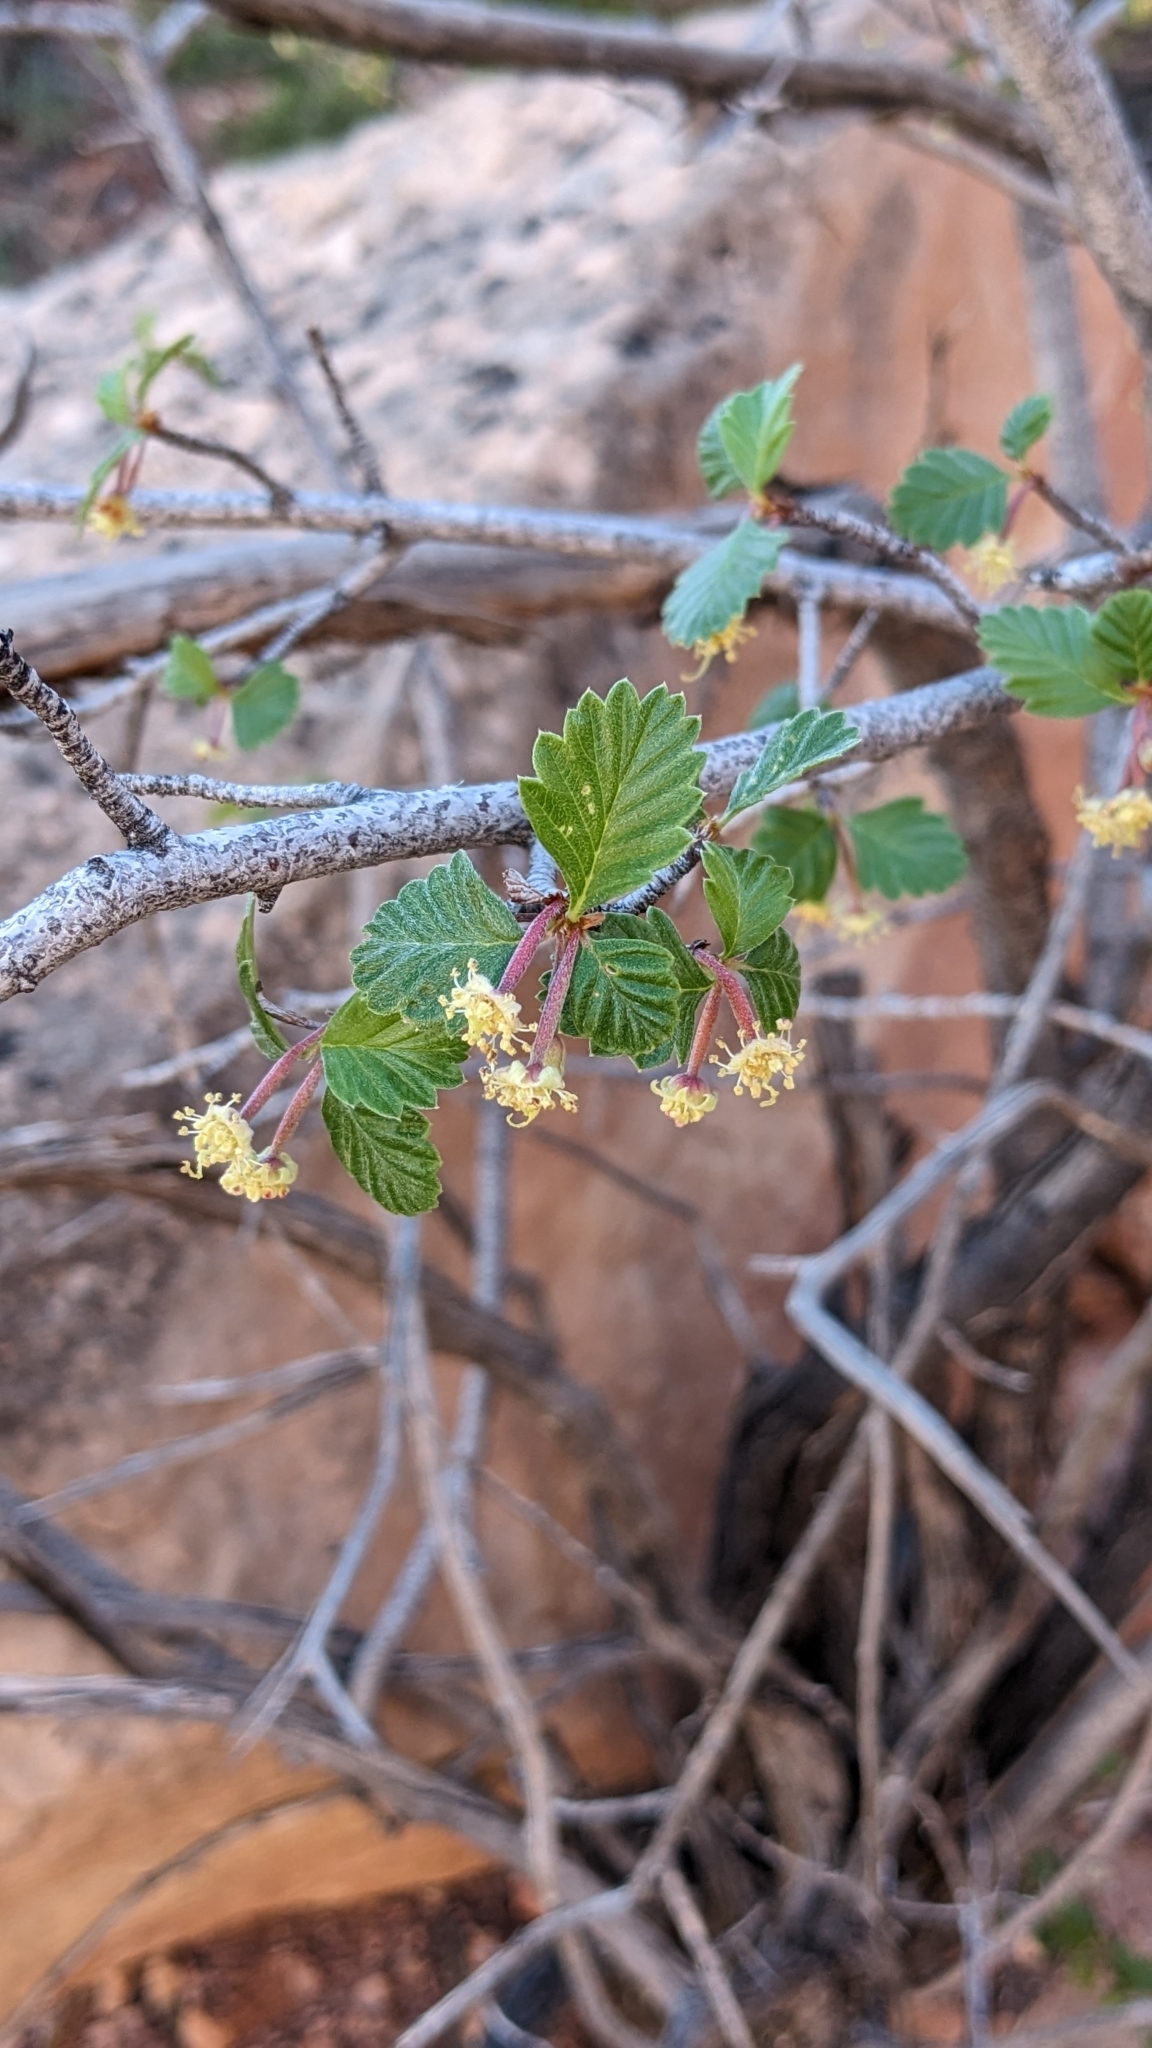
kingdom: Plantae
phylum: Tracheophyta
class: Magnoliopsida
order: Rosales
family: Rosaceae
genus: Cercocarpus
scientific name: Cercocarpus montanus
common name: Alder-leaf cercocarpus
